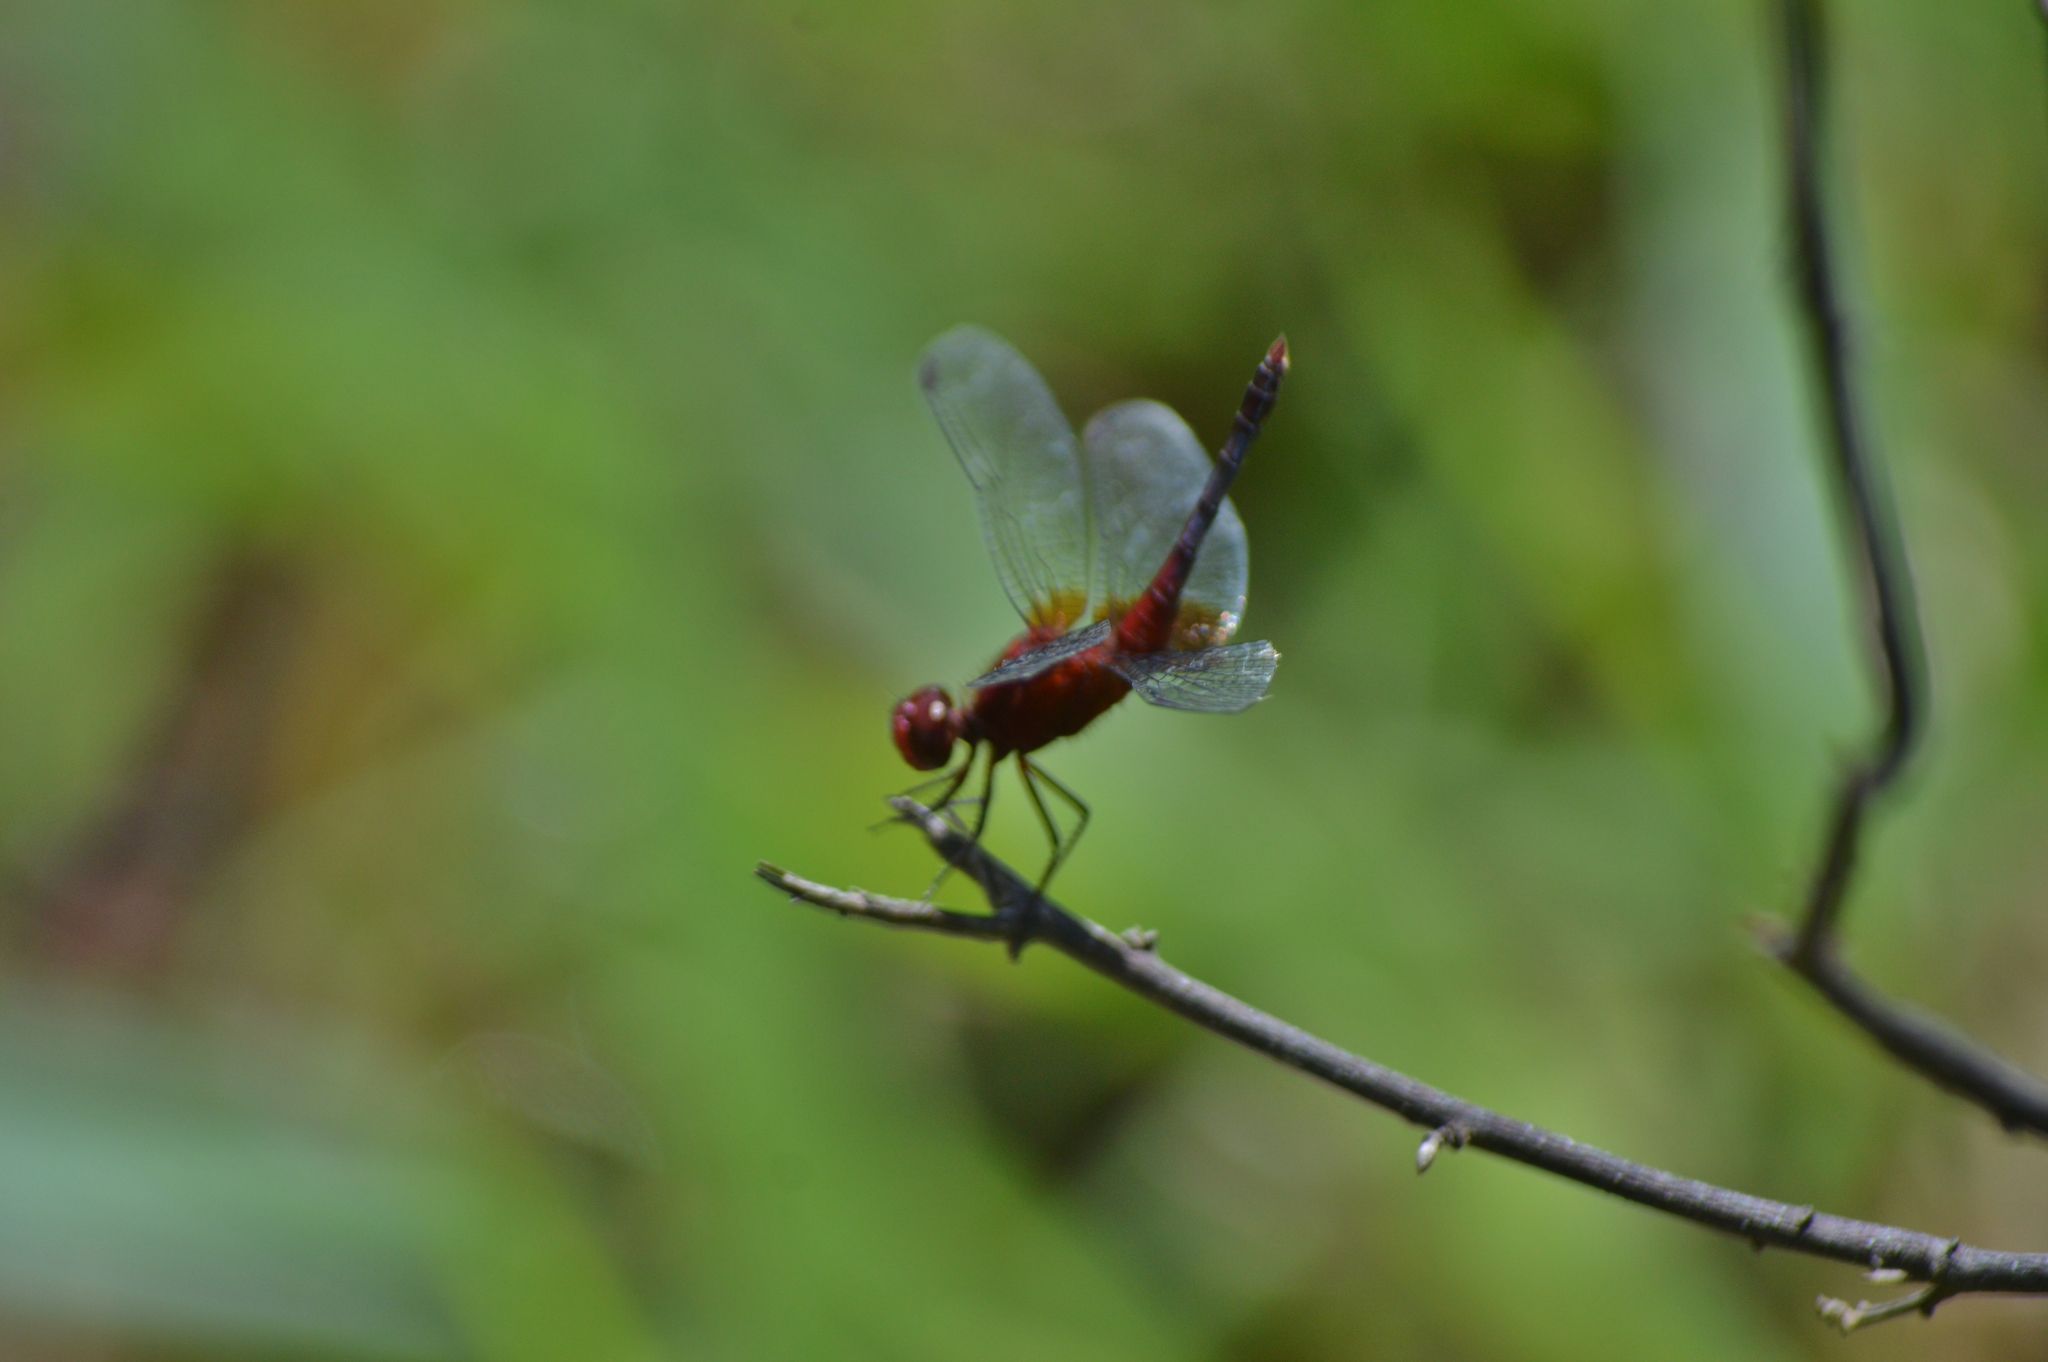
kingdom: Animalia
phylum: Arthropoda
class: Insecta
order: Odonata
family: Libellulidae
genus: Erythrodiplax
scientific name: Erythrodiplax fusca
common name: Red-faced dragonlet
